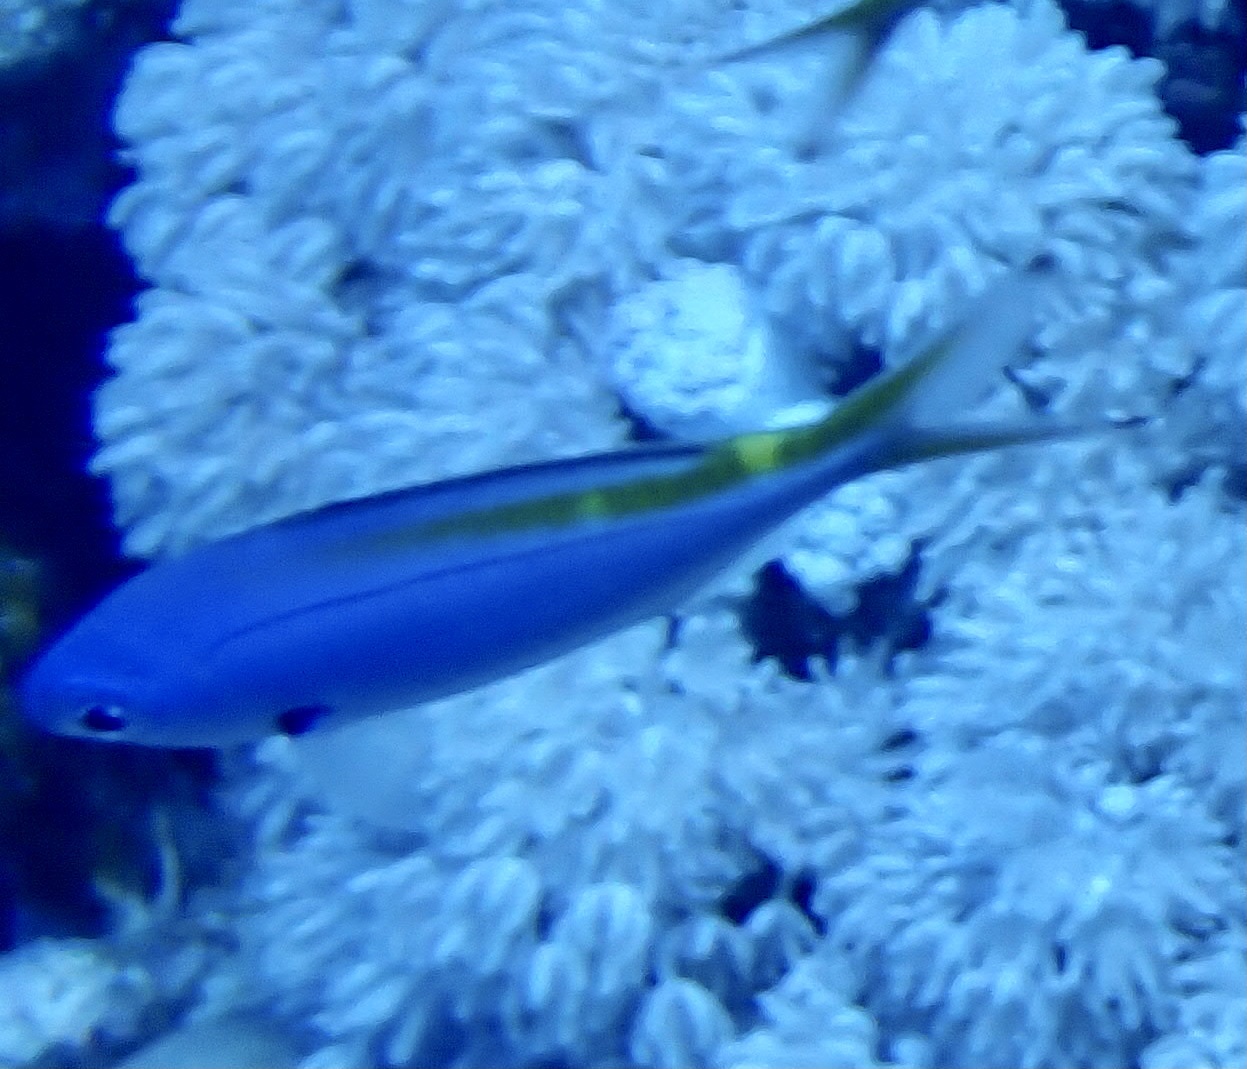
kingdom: Animalia
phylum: Chordata
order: Perciformes
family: Caesionidae
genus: Caesio
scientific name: Caesio suevica
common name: Suez fusilier
